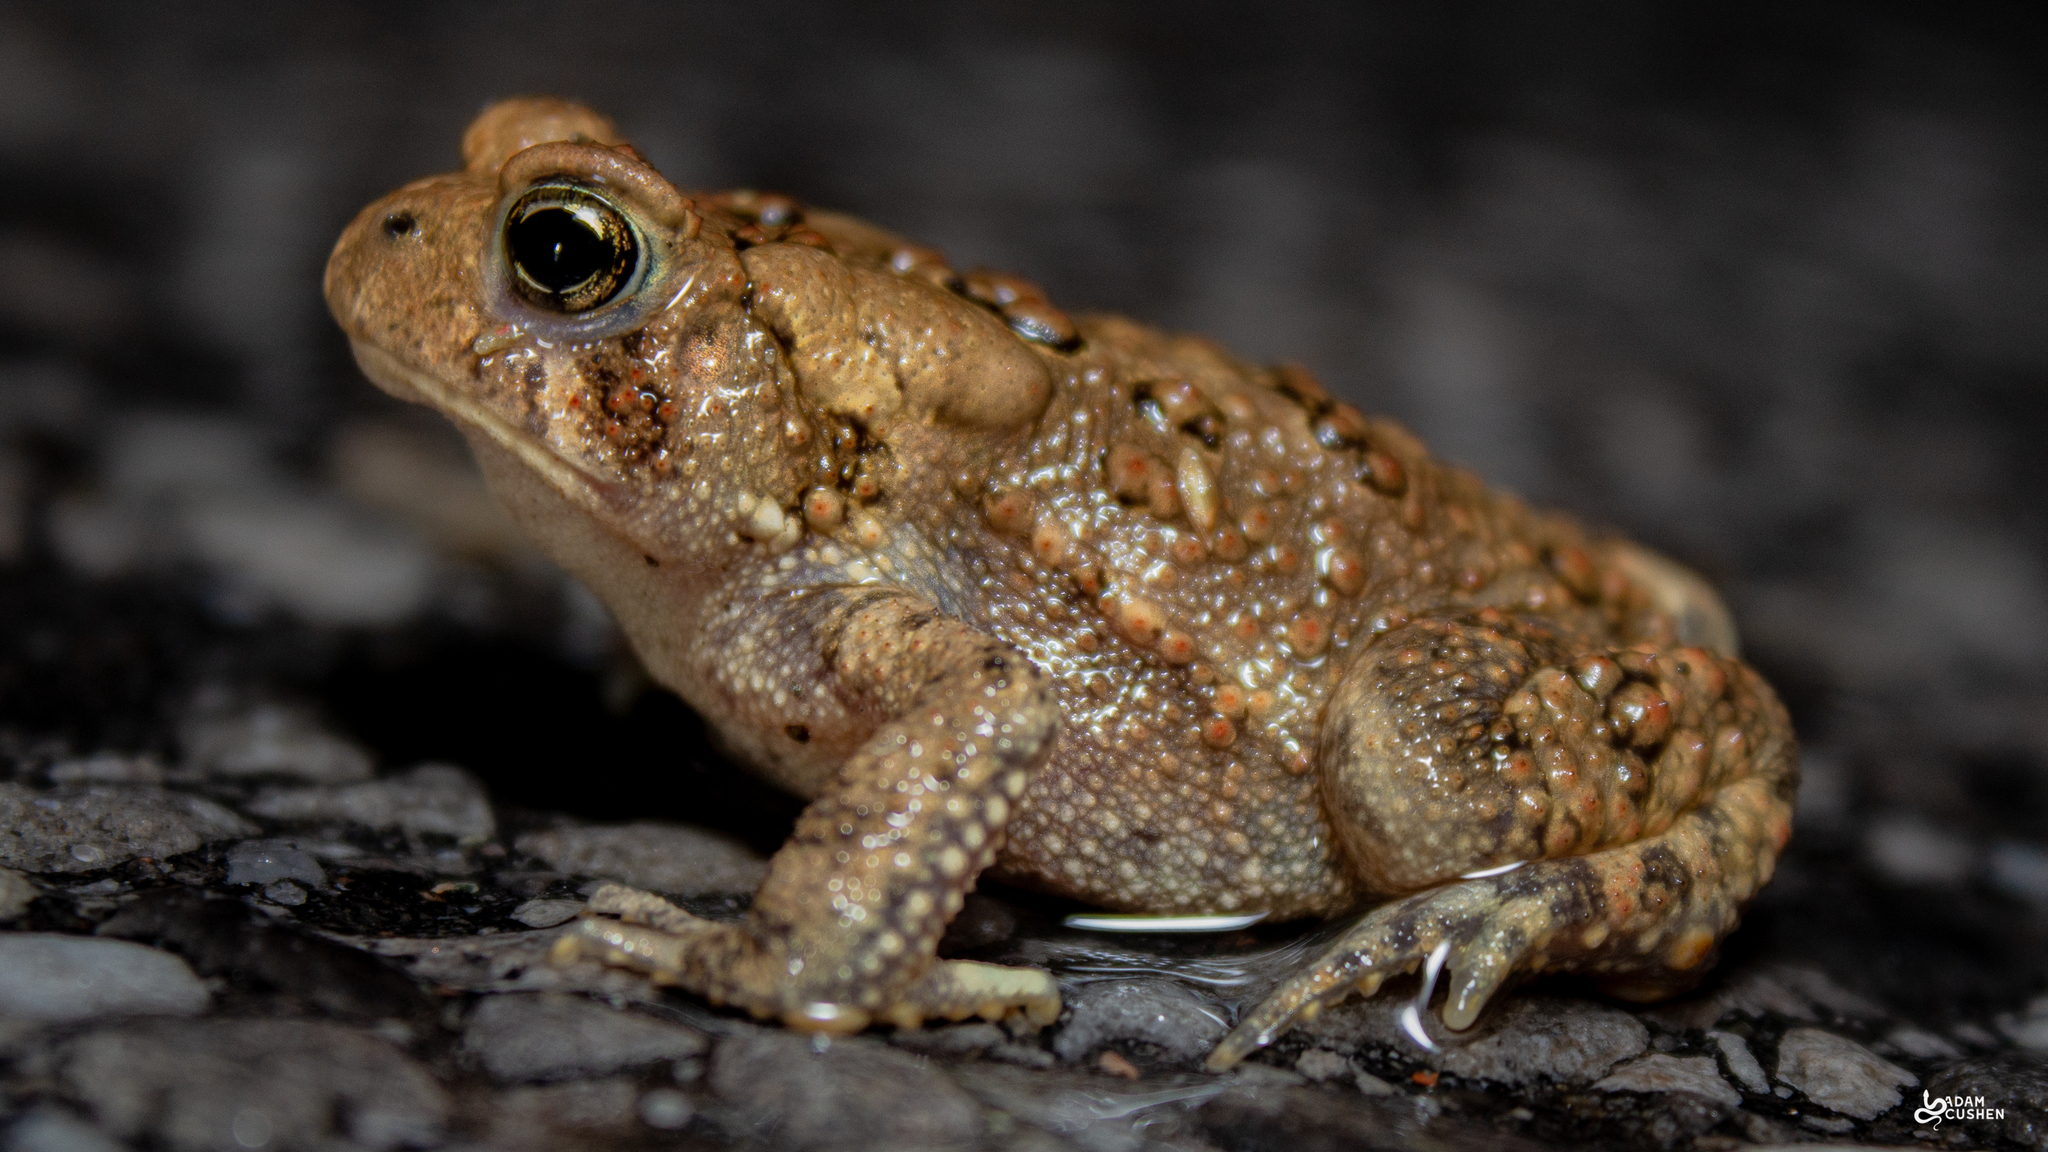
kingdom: Animalia
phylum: Chordata
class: Amphibia
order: Anura
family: Bufonidae
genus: Anaxyrus
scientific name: Anaxyrus americanus
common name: American toad
